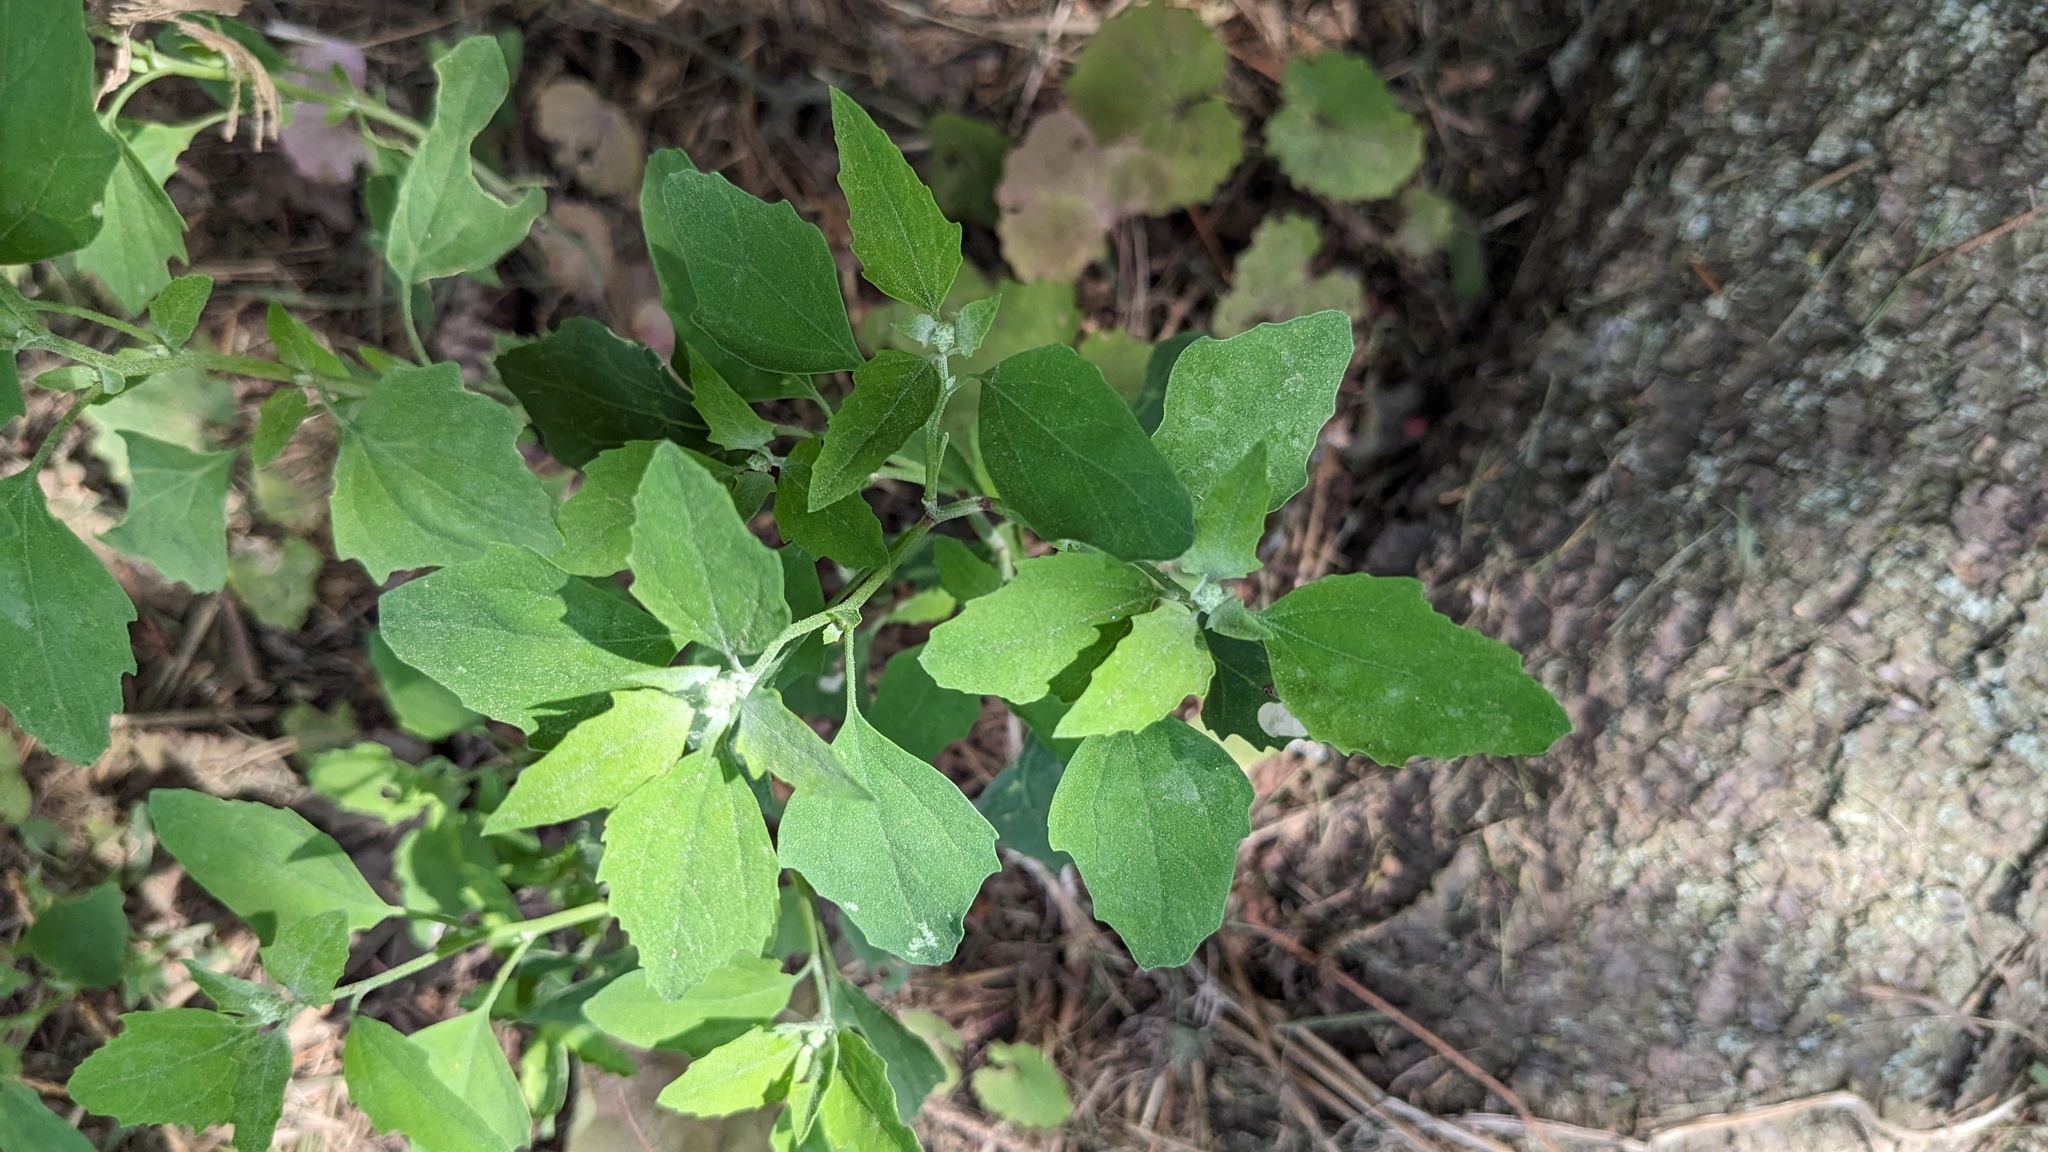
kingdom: Plantae
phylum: Tracheophyta
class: Magnoliopsida
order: Caryophyllales
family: Amaranthaceae
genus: Chenopodium
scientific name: Chenopodium album
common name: Fat-hen
